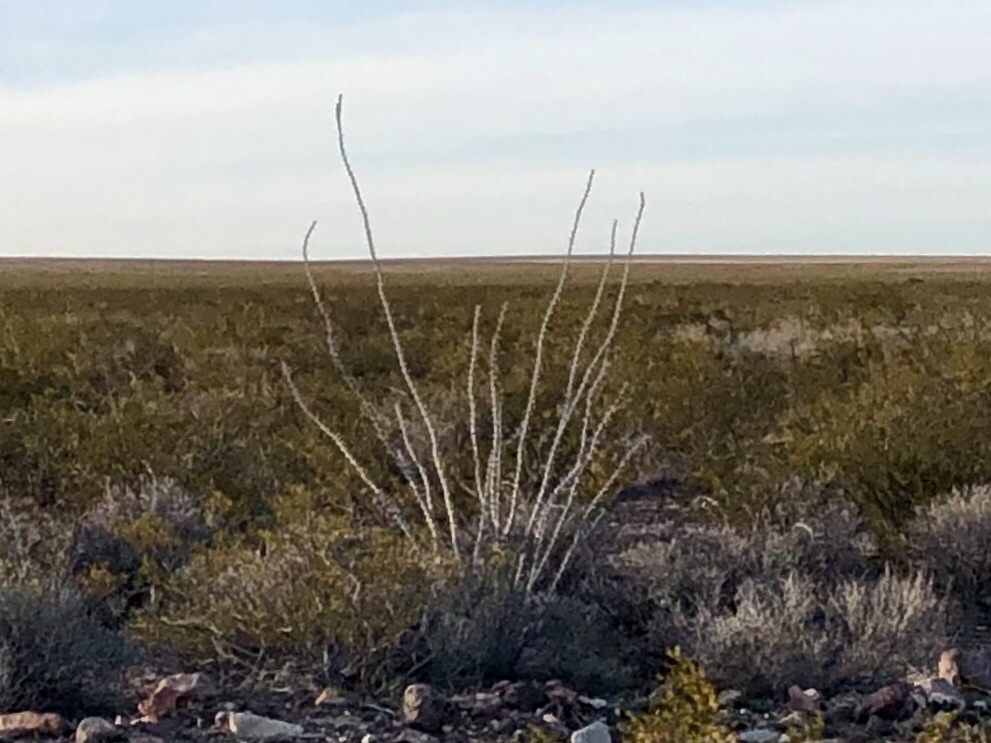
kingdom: Plantae
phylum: Tracheophyta
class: Magnoliopsida
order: Ericales
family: Fouquieriaceae
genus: Fouquieria
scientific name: Fouquieria splendens
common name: Vine-cactus
